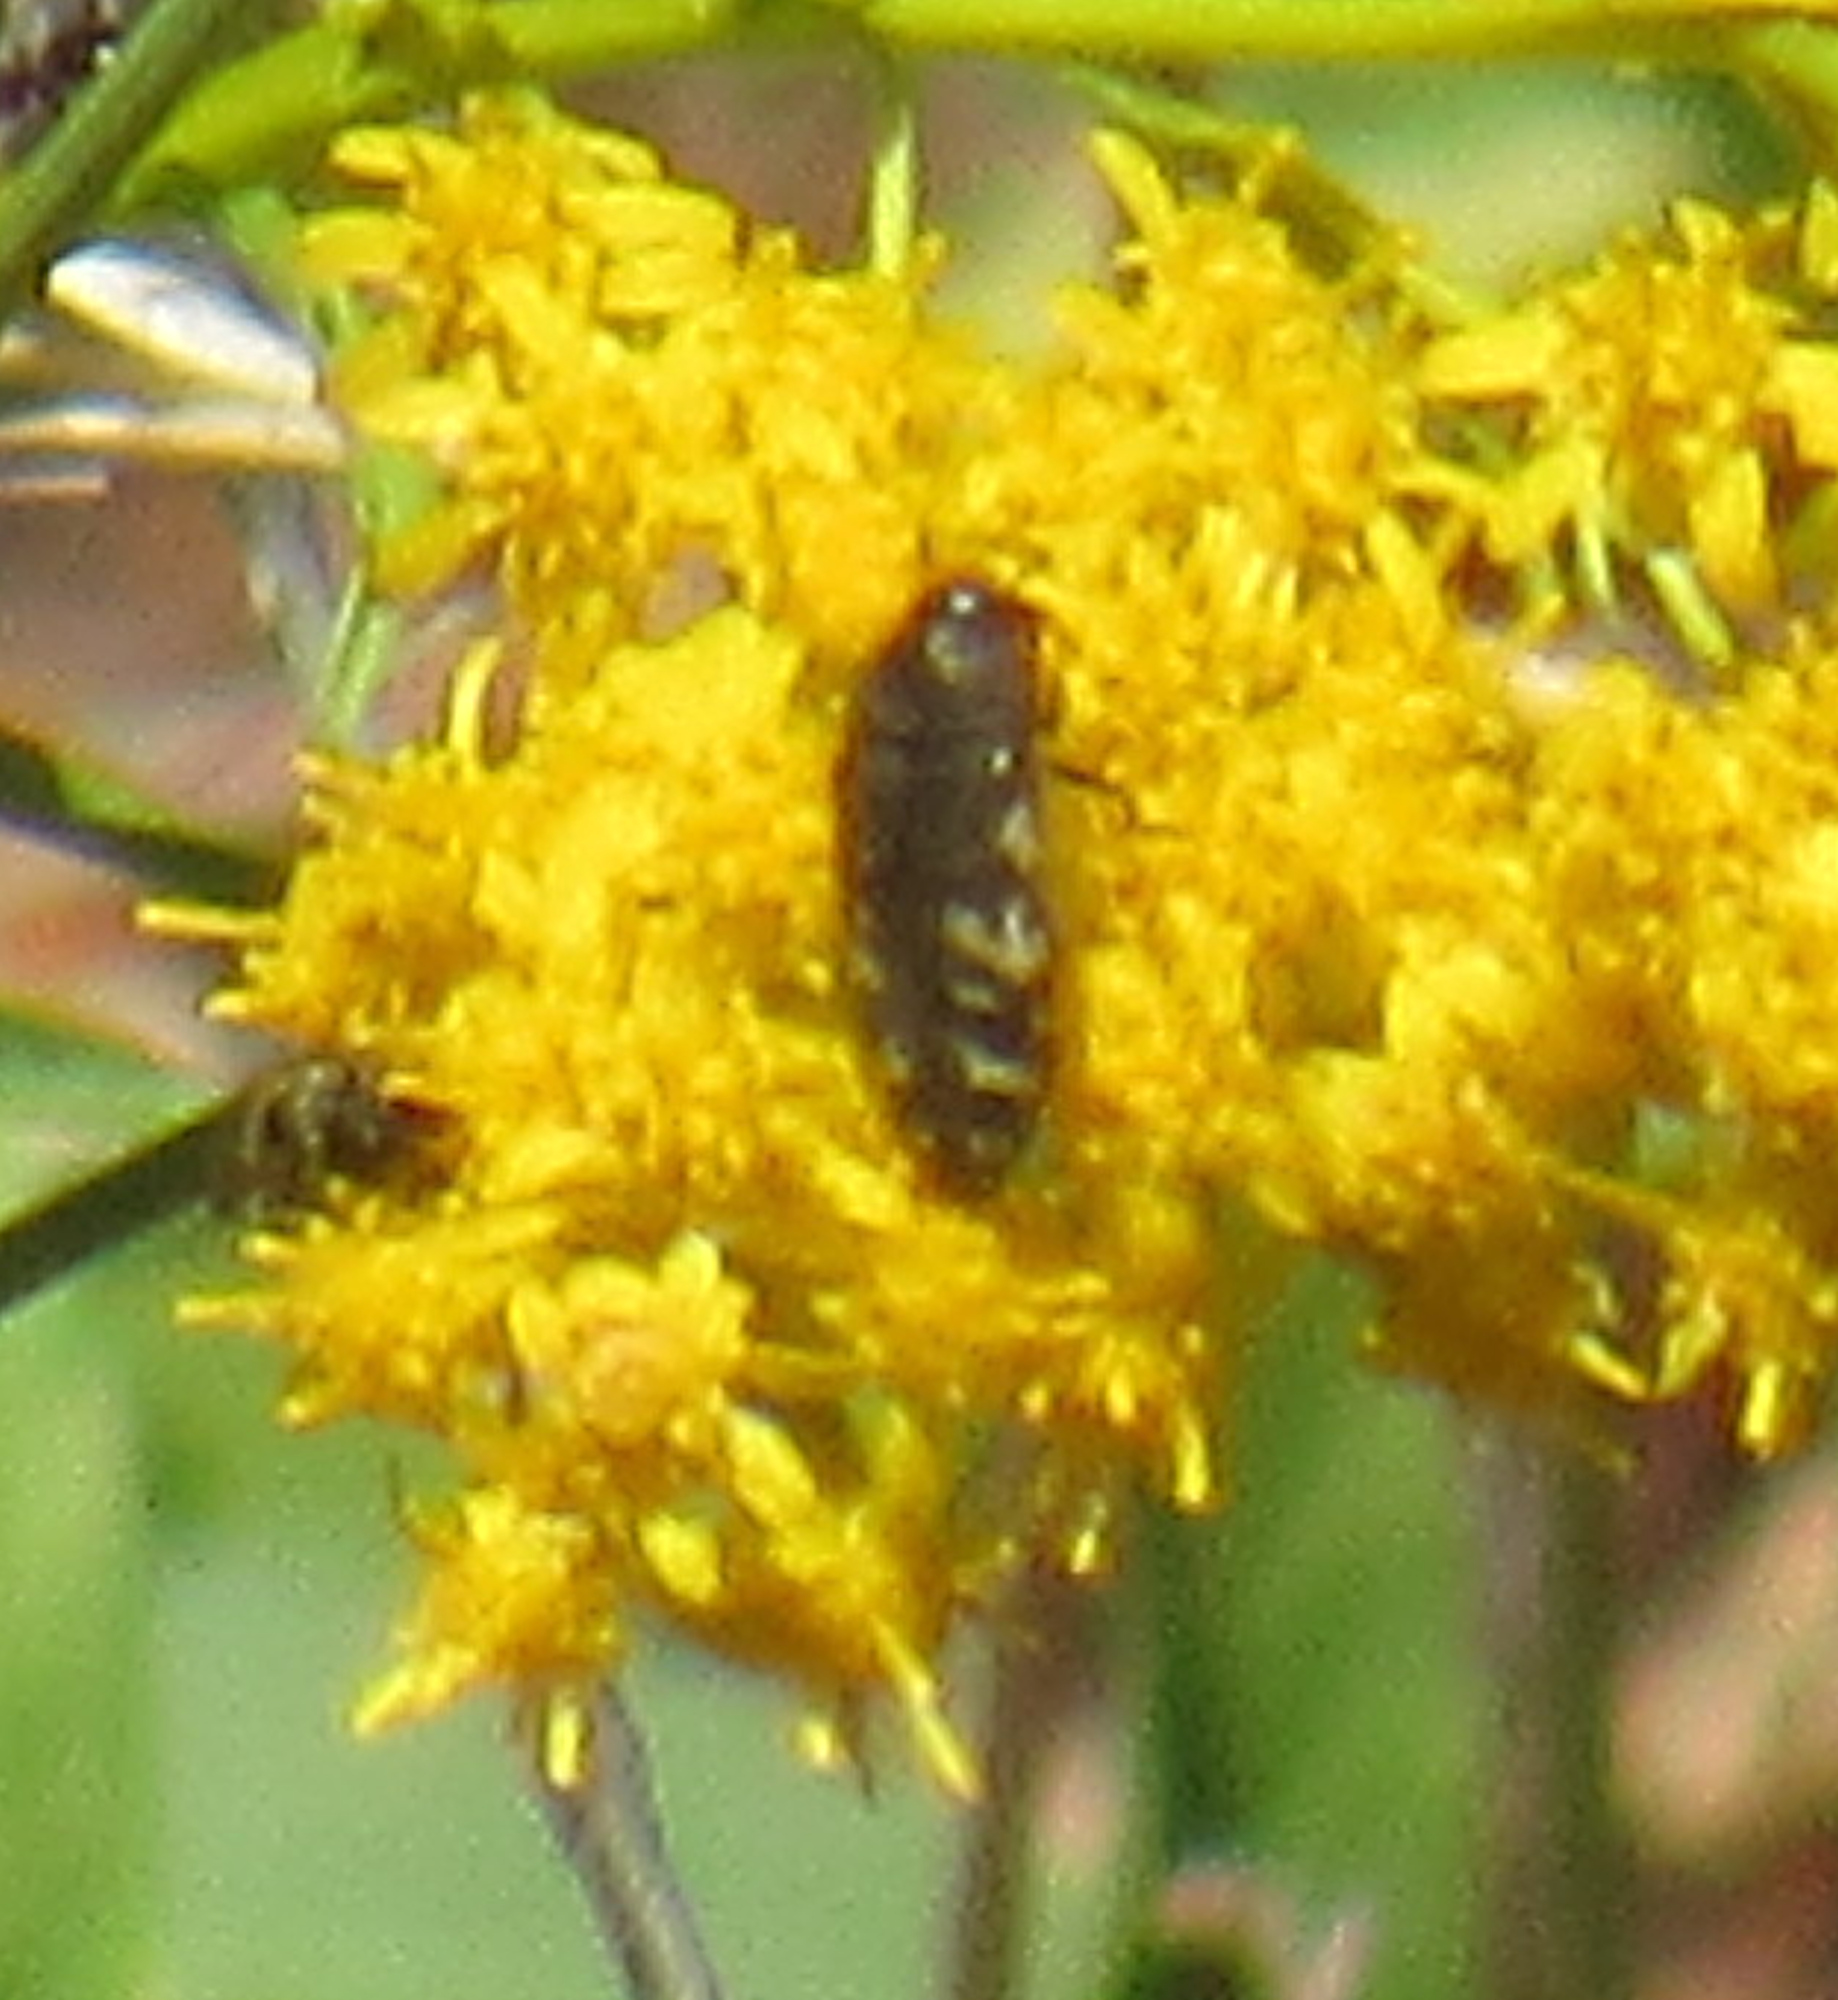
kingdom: Animalia
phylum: Arthropoda
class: Insecta
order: Coleoptera
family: Buprestidae
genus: Acmaeodera
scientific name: Acmaeodera idahoensis
